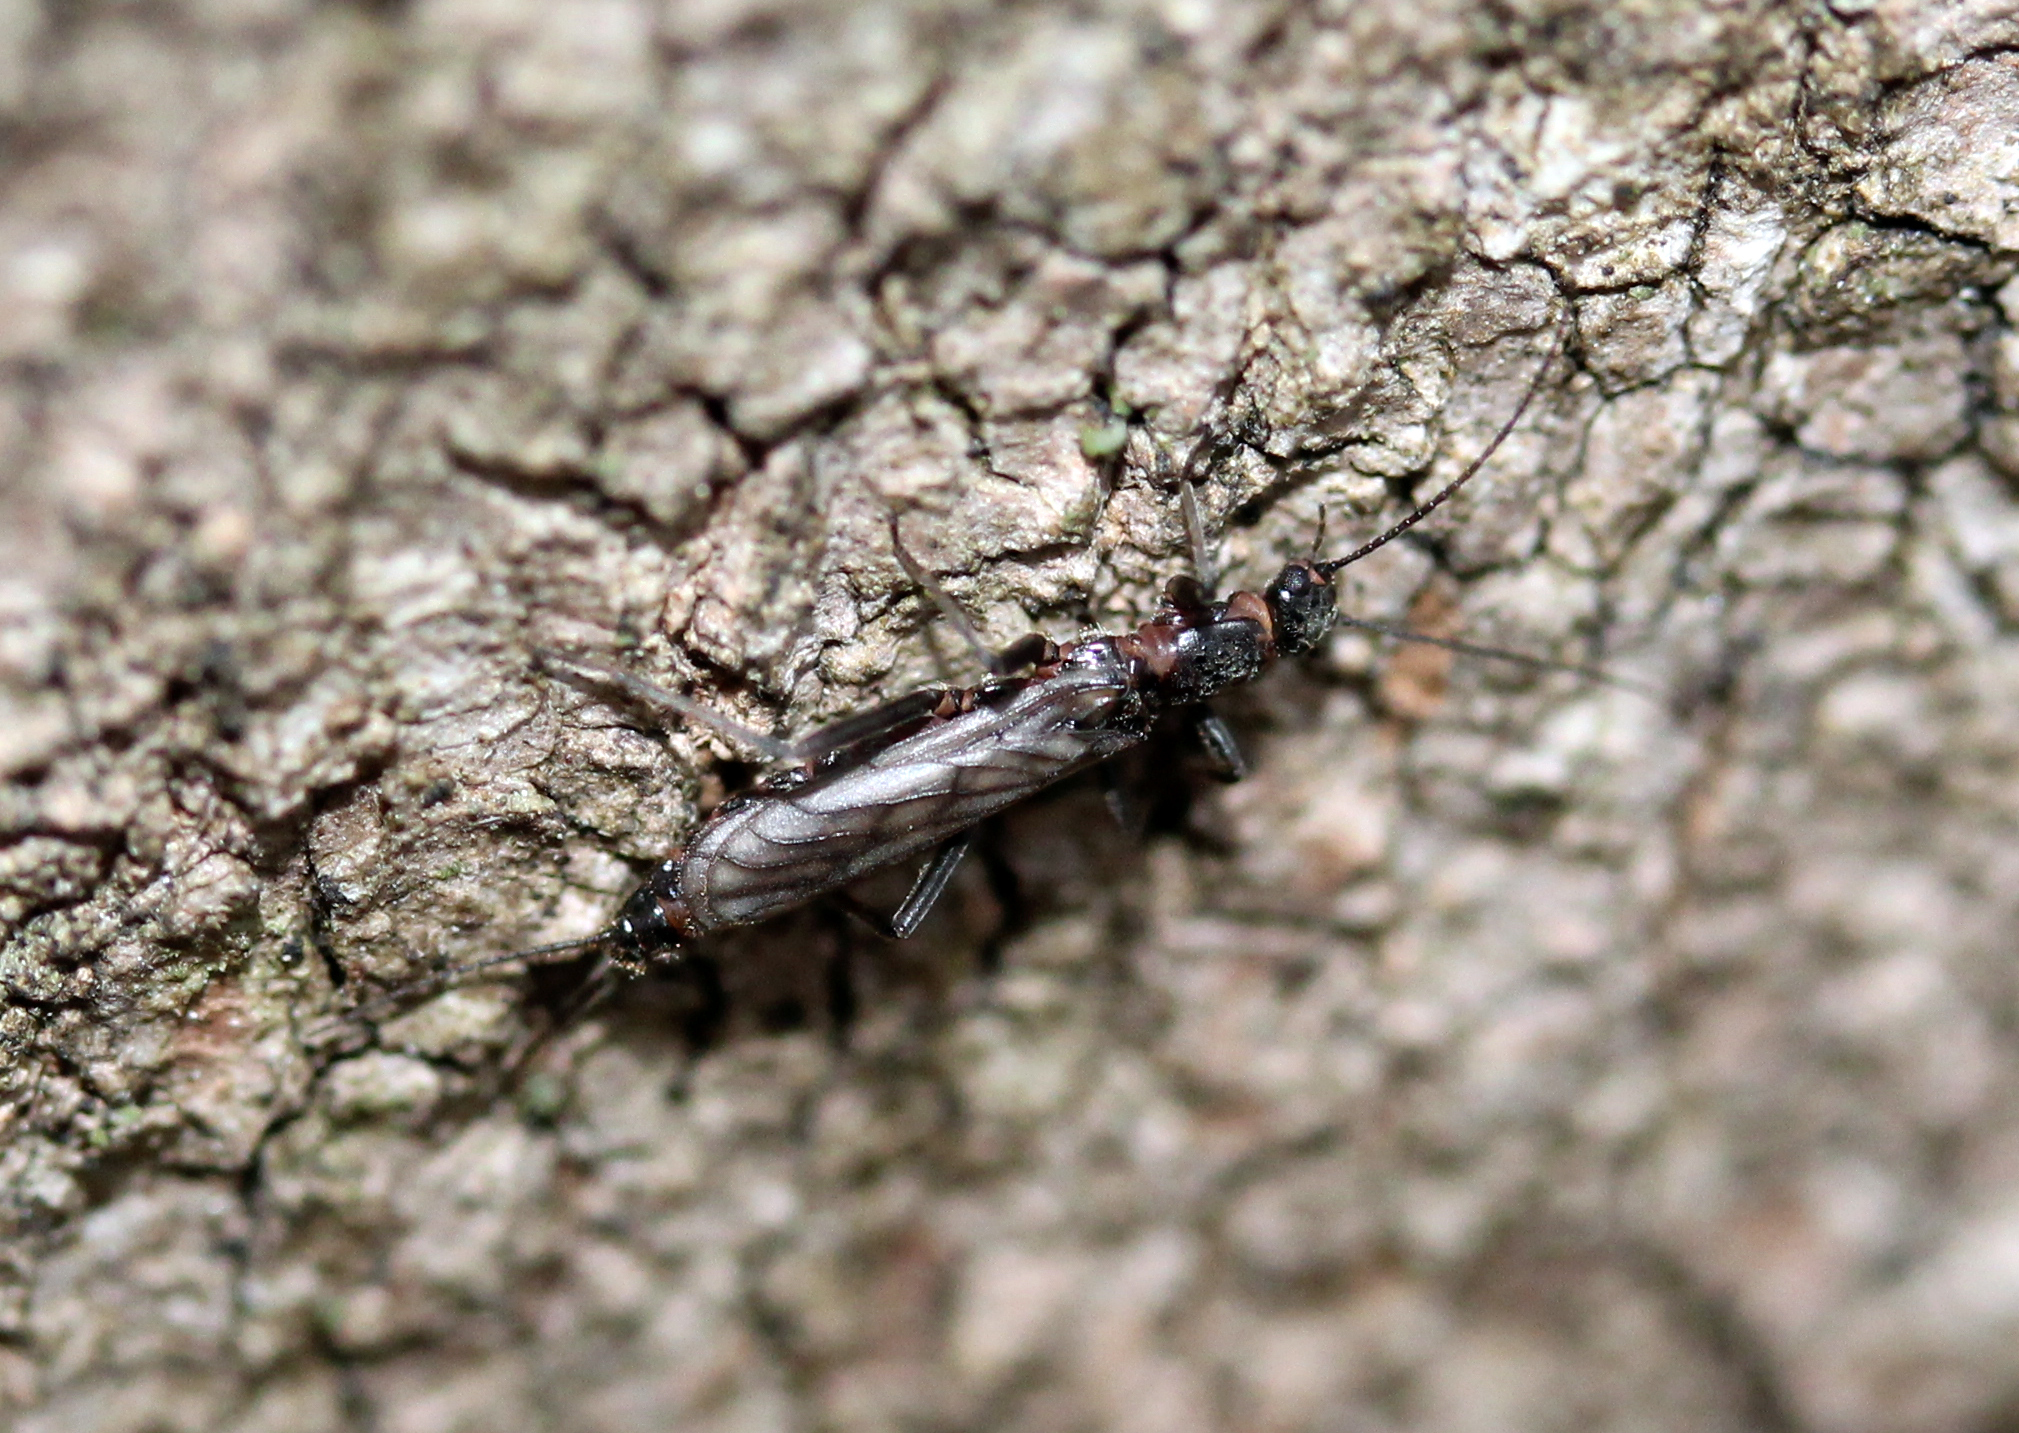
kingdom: Animalia
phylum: Arthropoda
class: Insecta
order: Plecoptera
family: Capniidae
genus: Allocapnia
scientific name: Allocapnia
